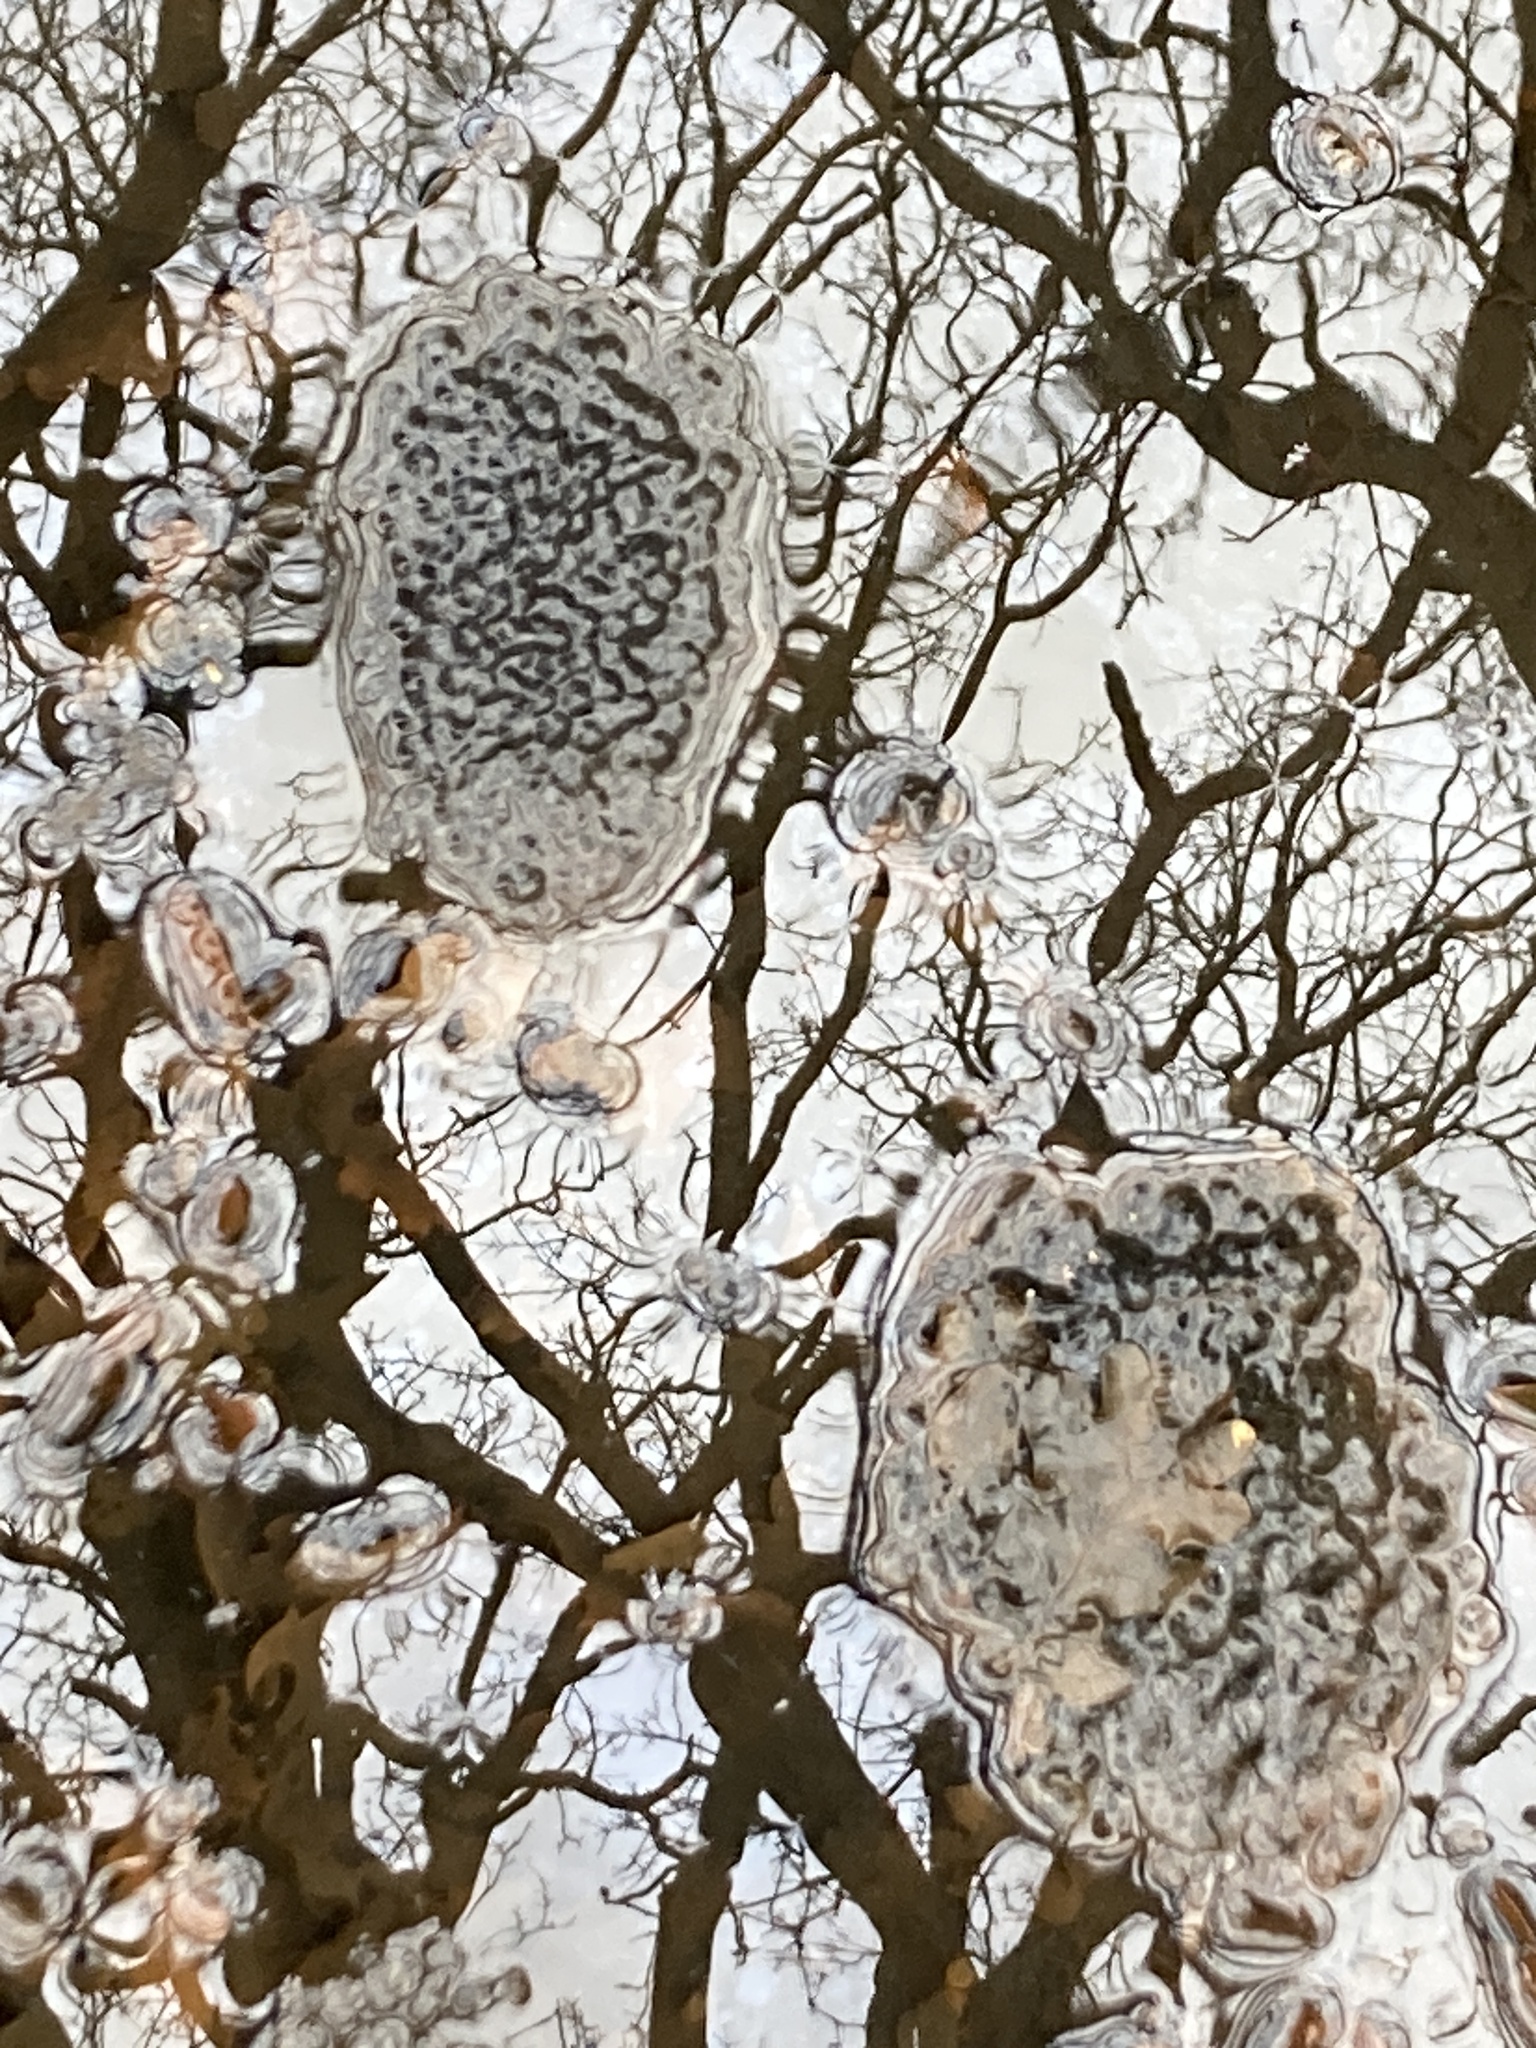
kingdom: Animalia
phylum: Chordata
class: Amphibia
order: Anura
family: Ranidae
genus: Rana
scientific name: Rana temporaria
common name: Common frog
